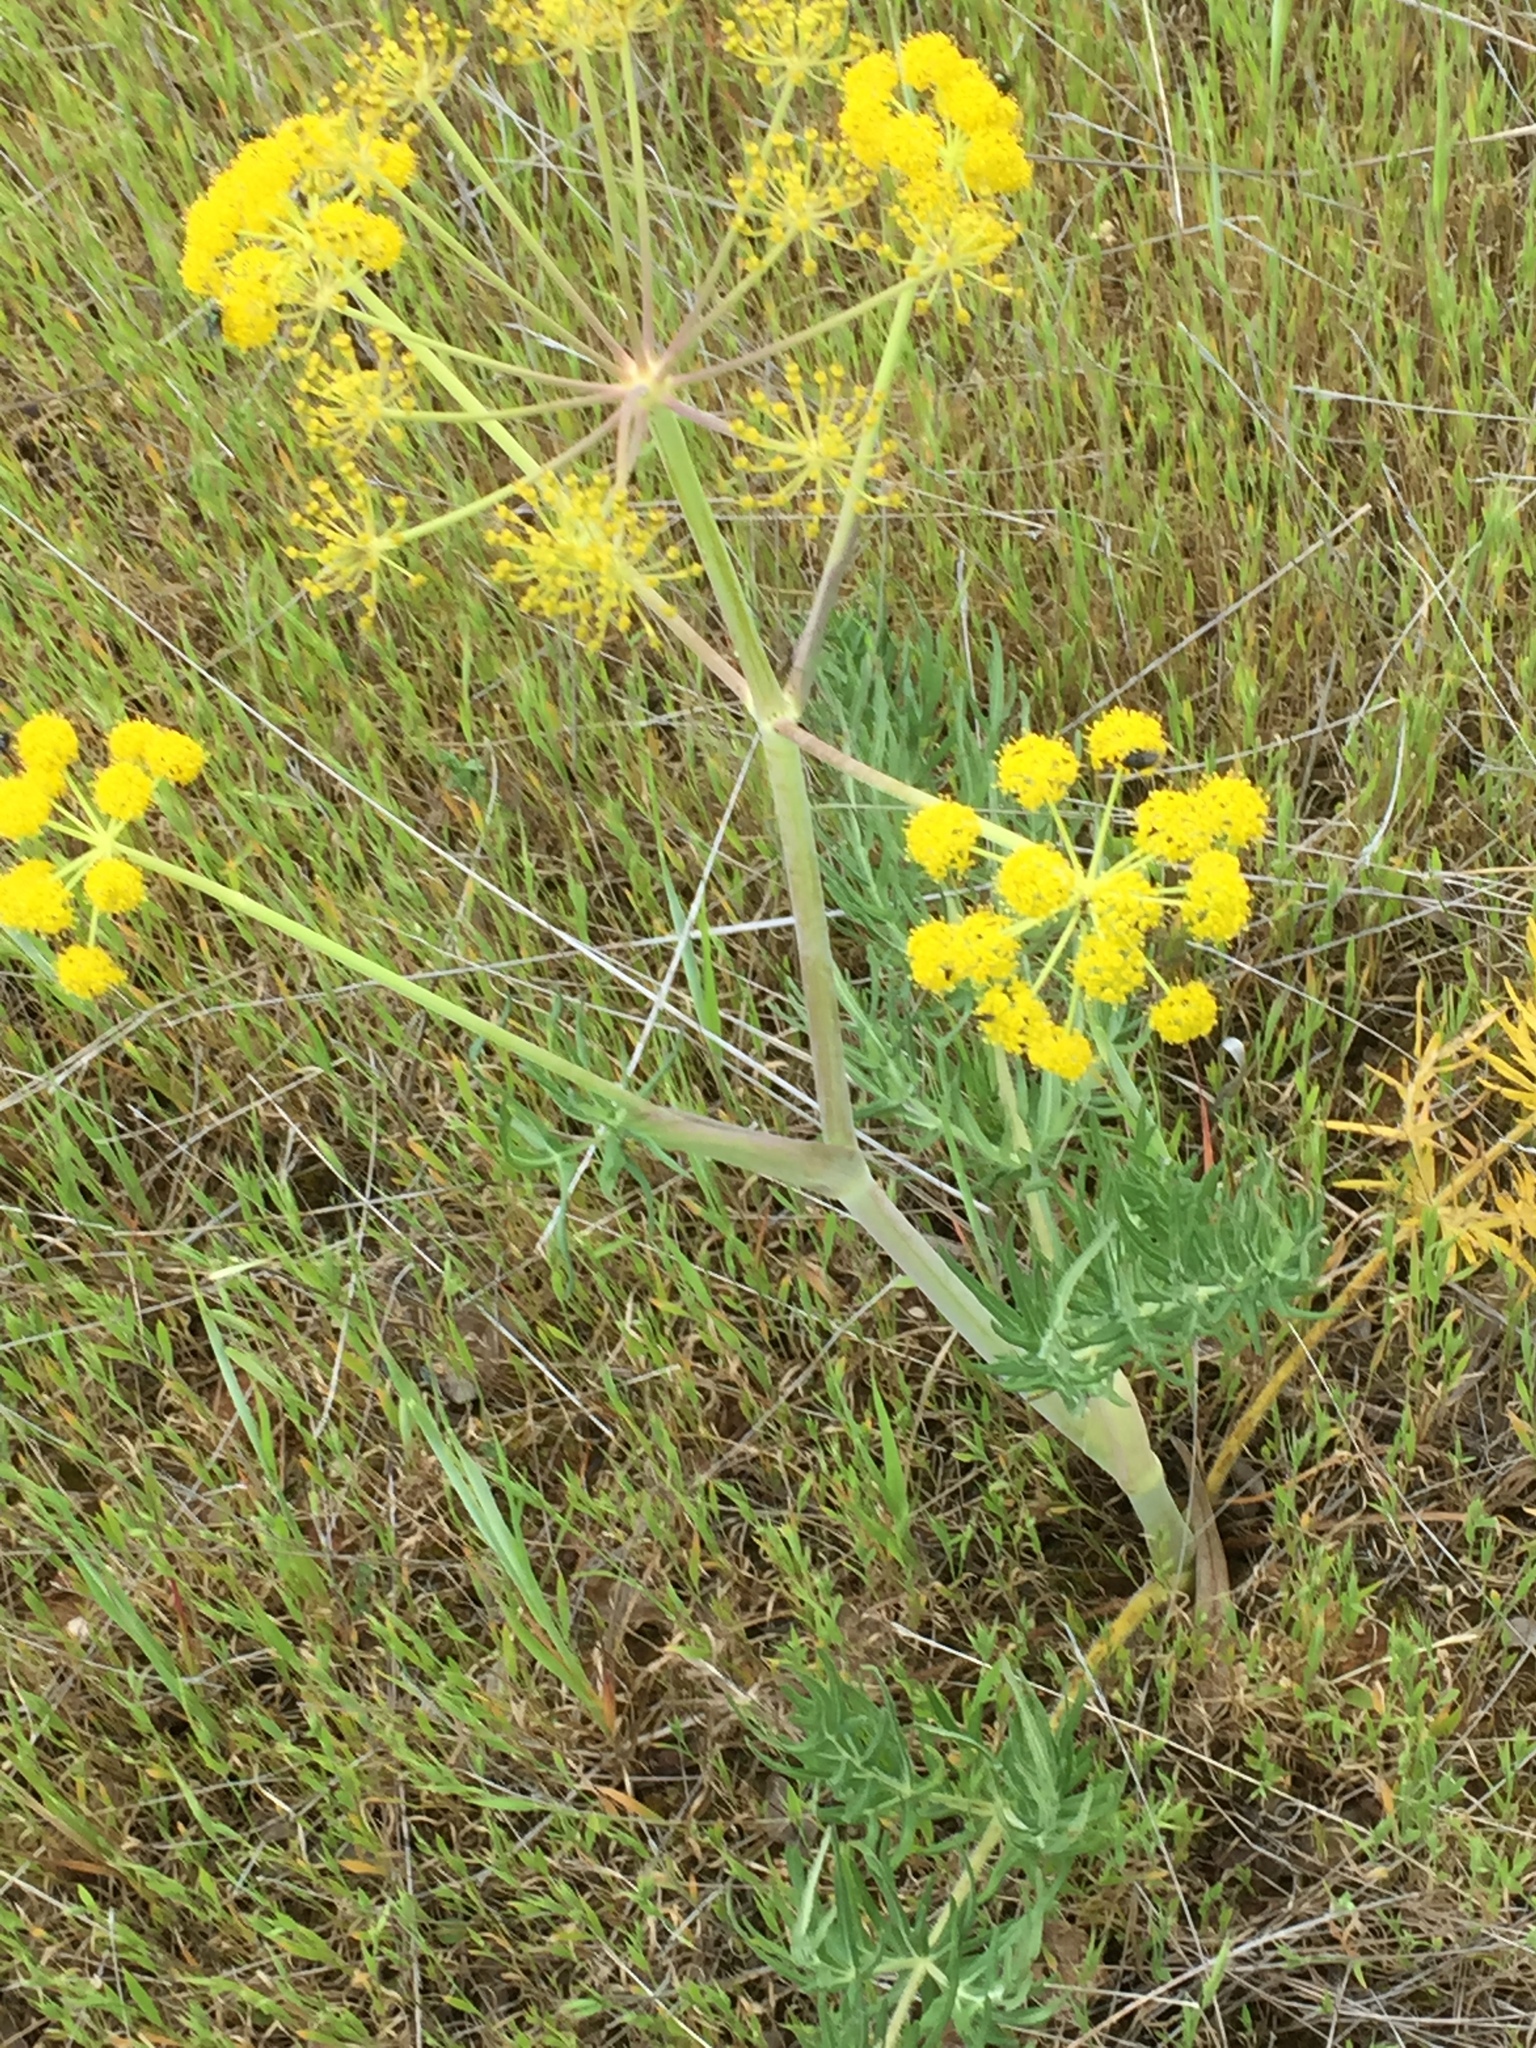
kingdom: Plantae
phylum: Tracheophyta
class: Magnoliopsida
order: Apiales
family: Apiaceae
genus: Thapsia
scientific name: Thapsia transtagana
